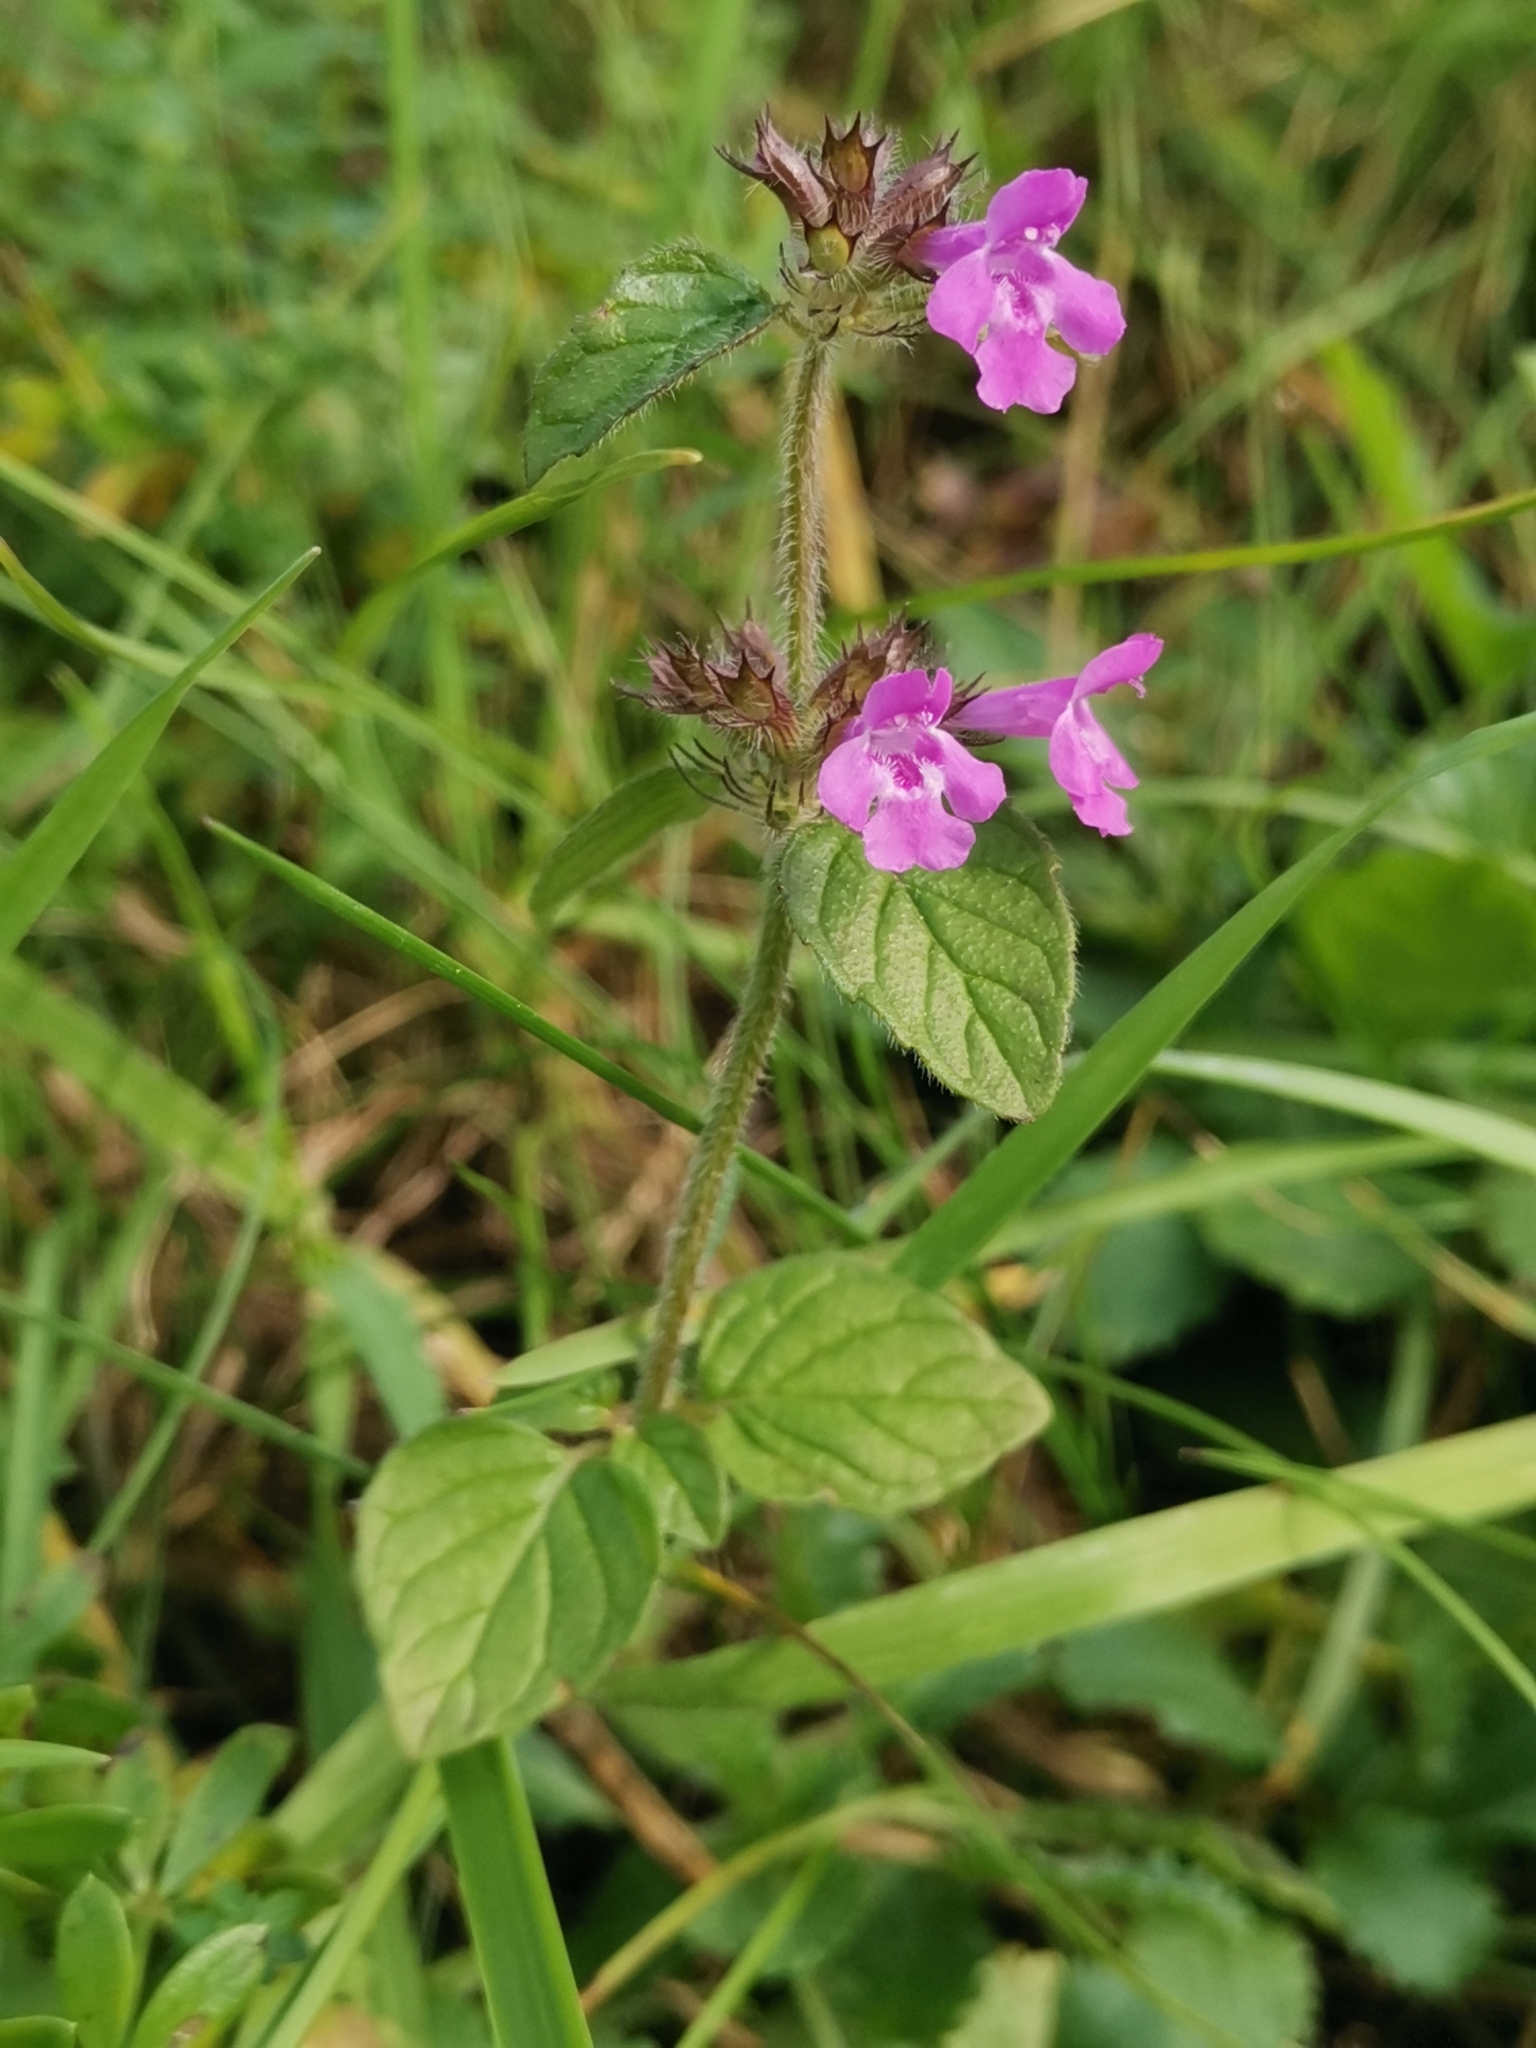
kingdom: Plantae
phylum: Tracheophyta
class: Magnoliopsida
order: Lamiales
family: Lamiaceae
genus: Clinopodium
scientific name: Clinopodium vulgare
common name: Wild basil
